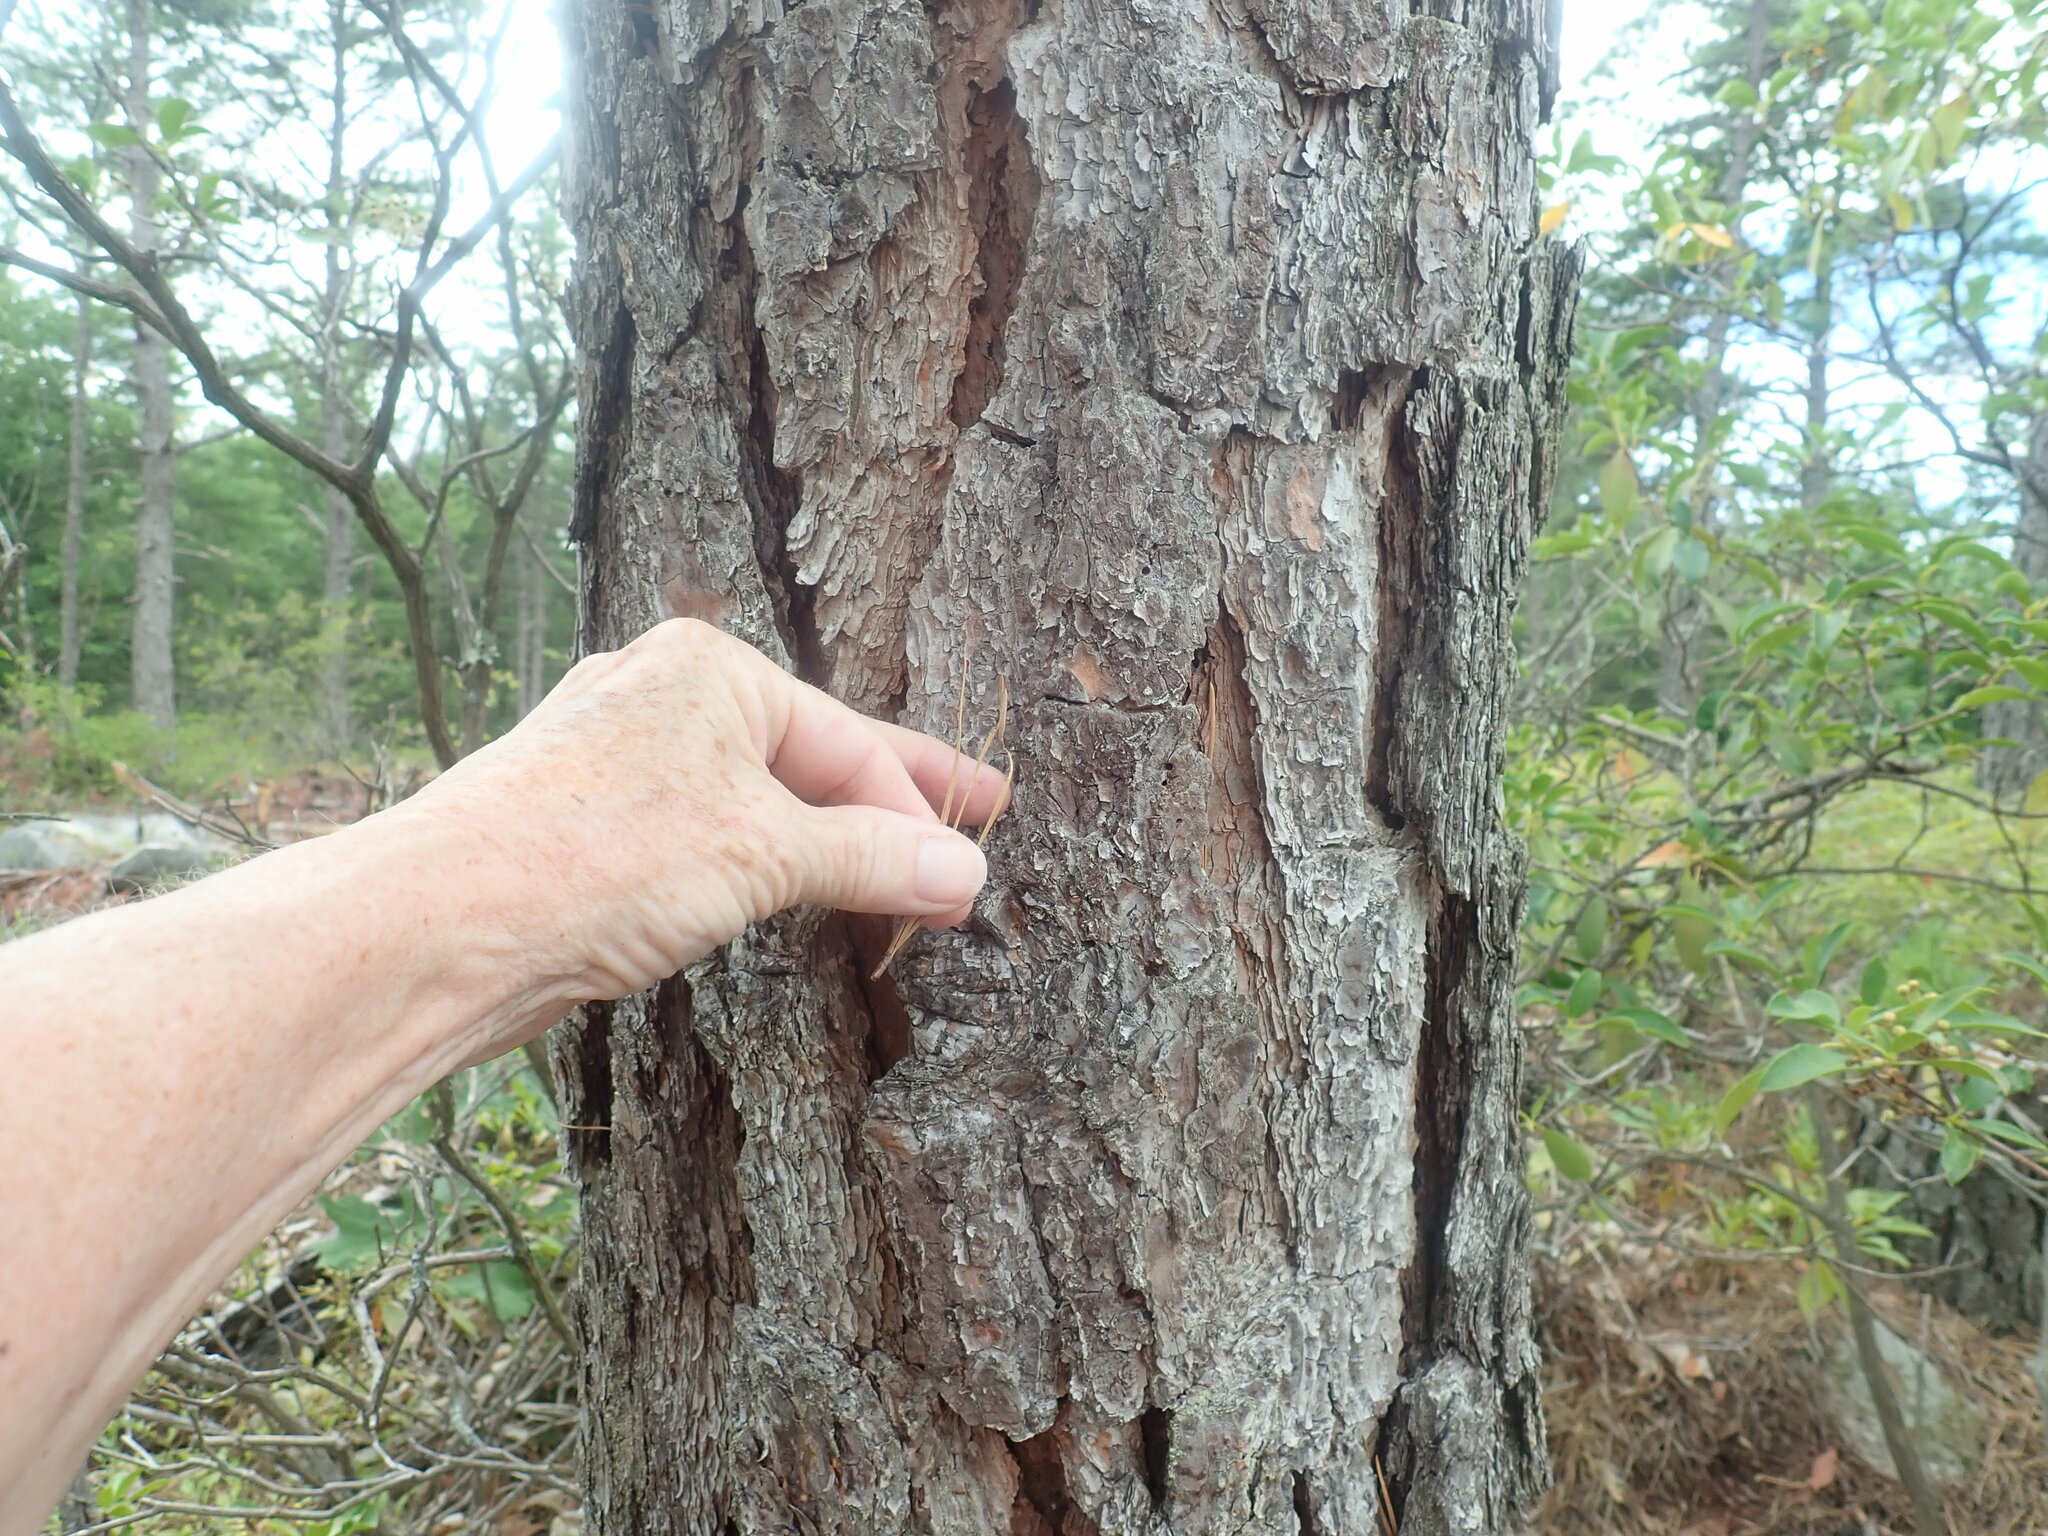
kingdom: Plantae
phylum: Tracheophyta
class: Pinopsida
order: Pinales
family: Pinaceae
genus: Pinus
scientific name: Pinus rigida
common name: Pitch pine
